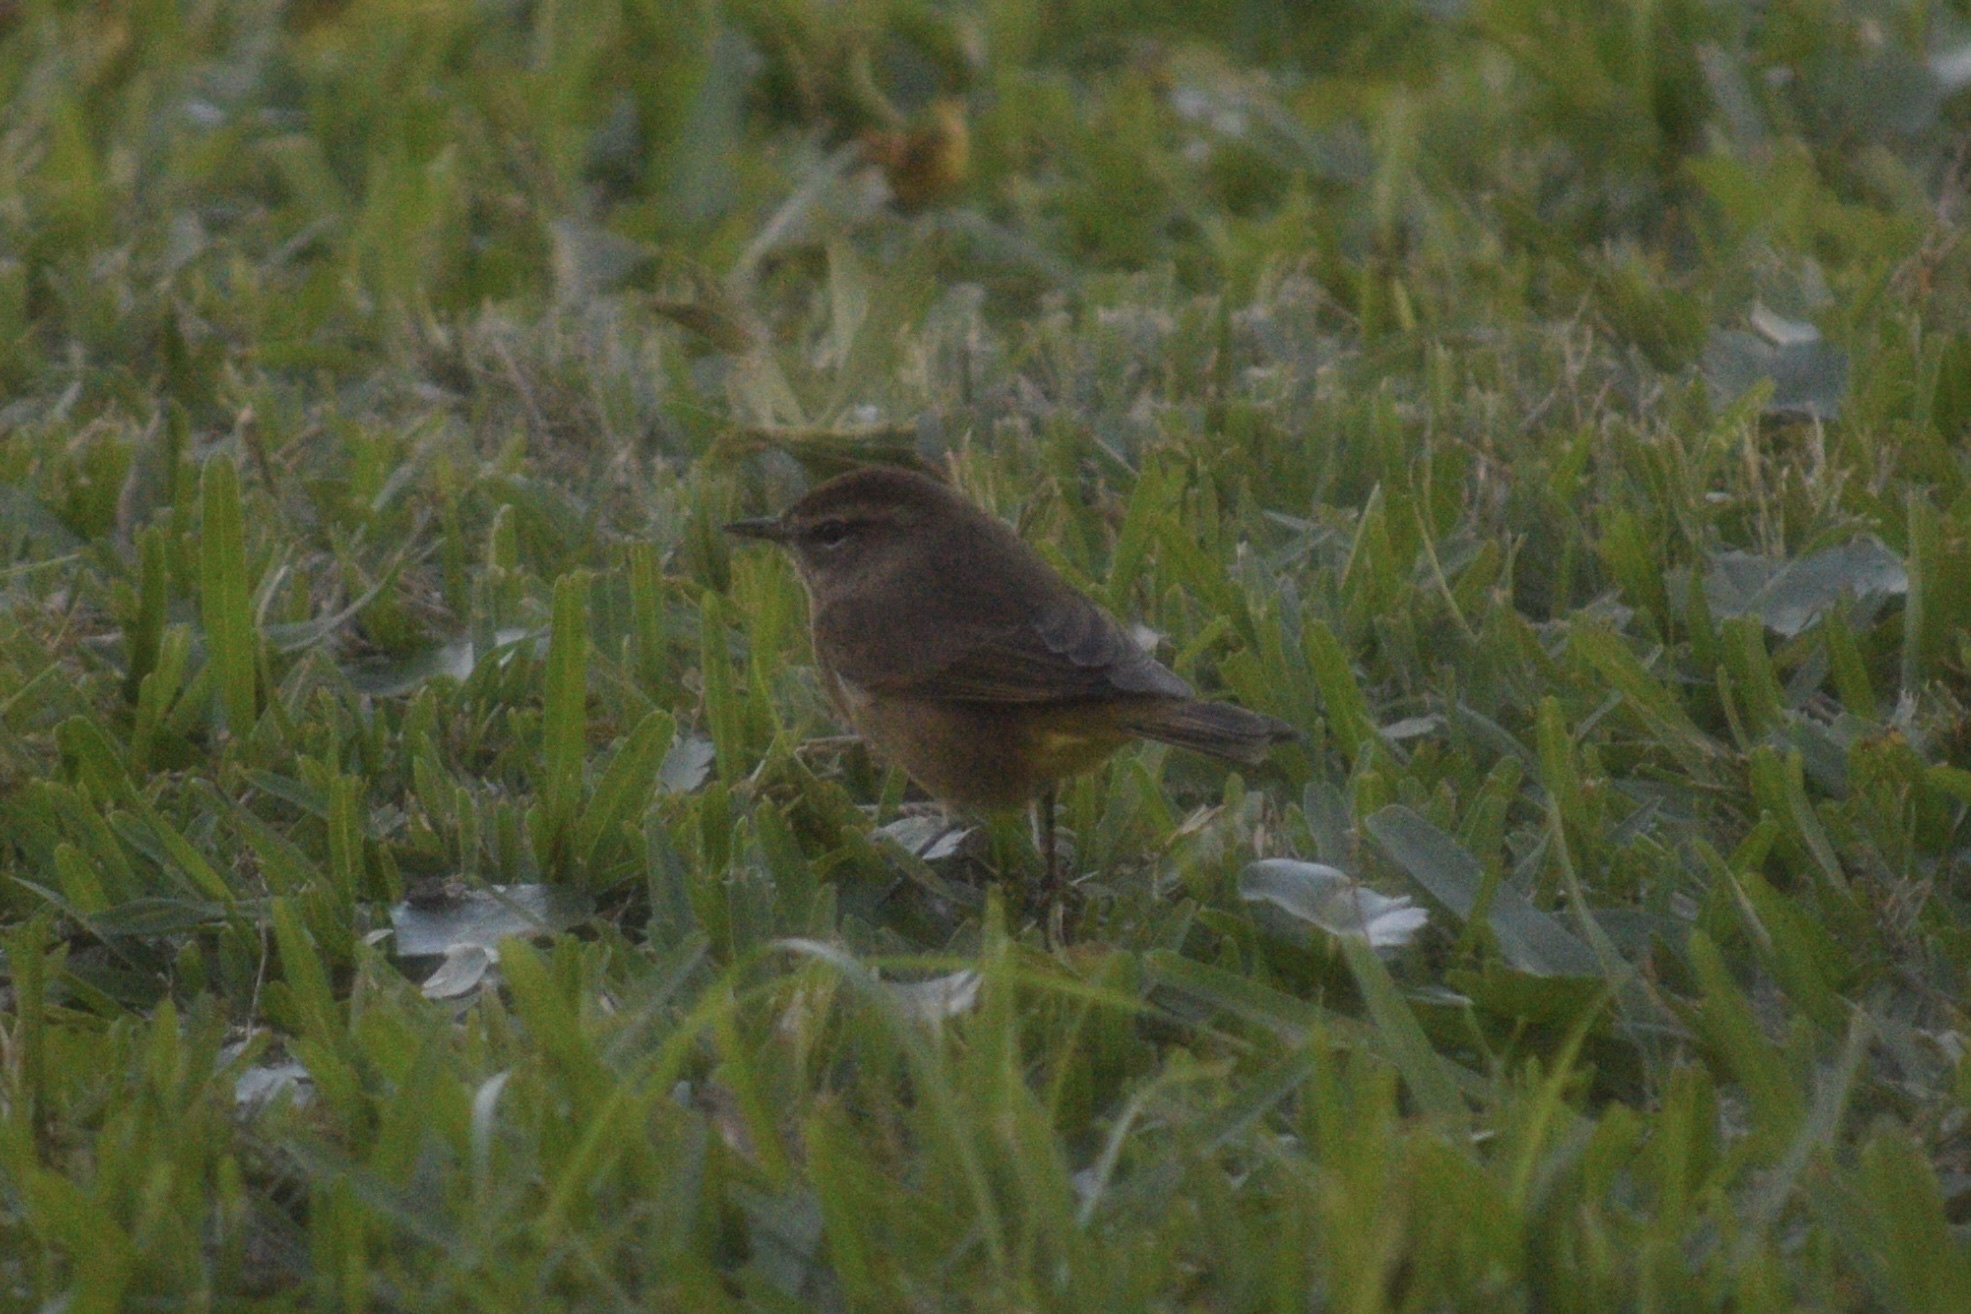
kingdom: Animalia
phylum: Chordata
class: Aves
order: Passeriformes
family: Parulidae
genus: Setophaga
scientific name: Setophaga palmarum
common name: Palm warbler
